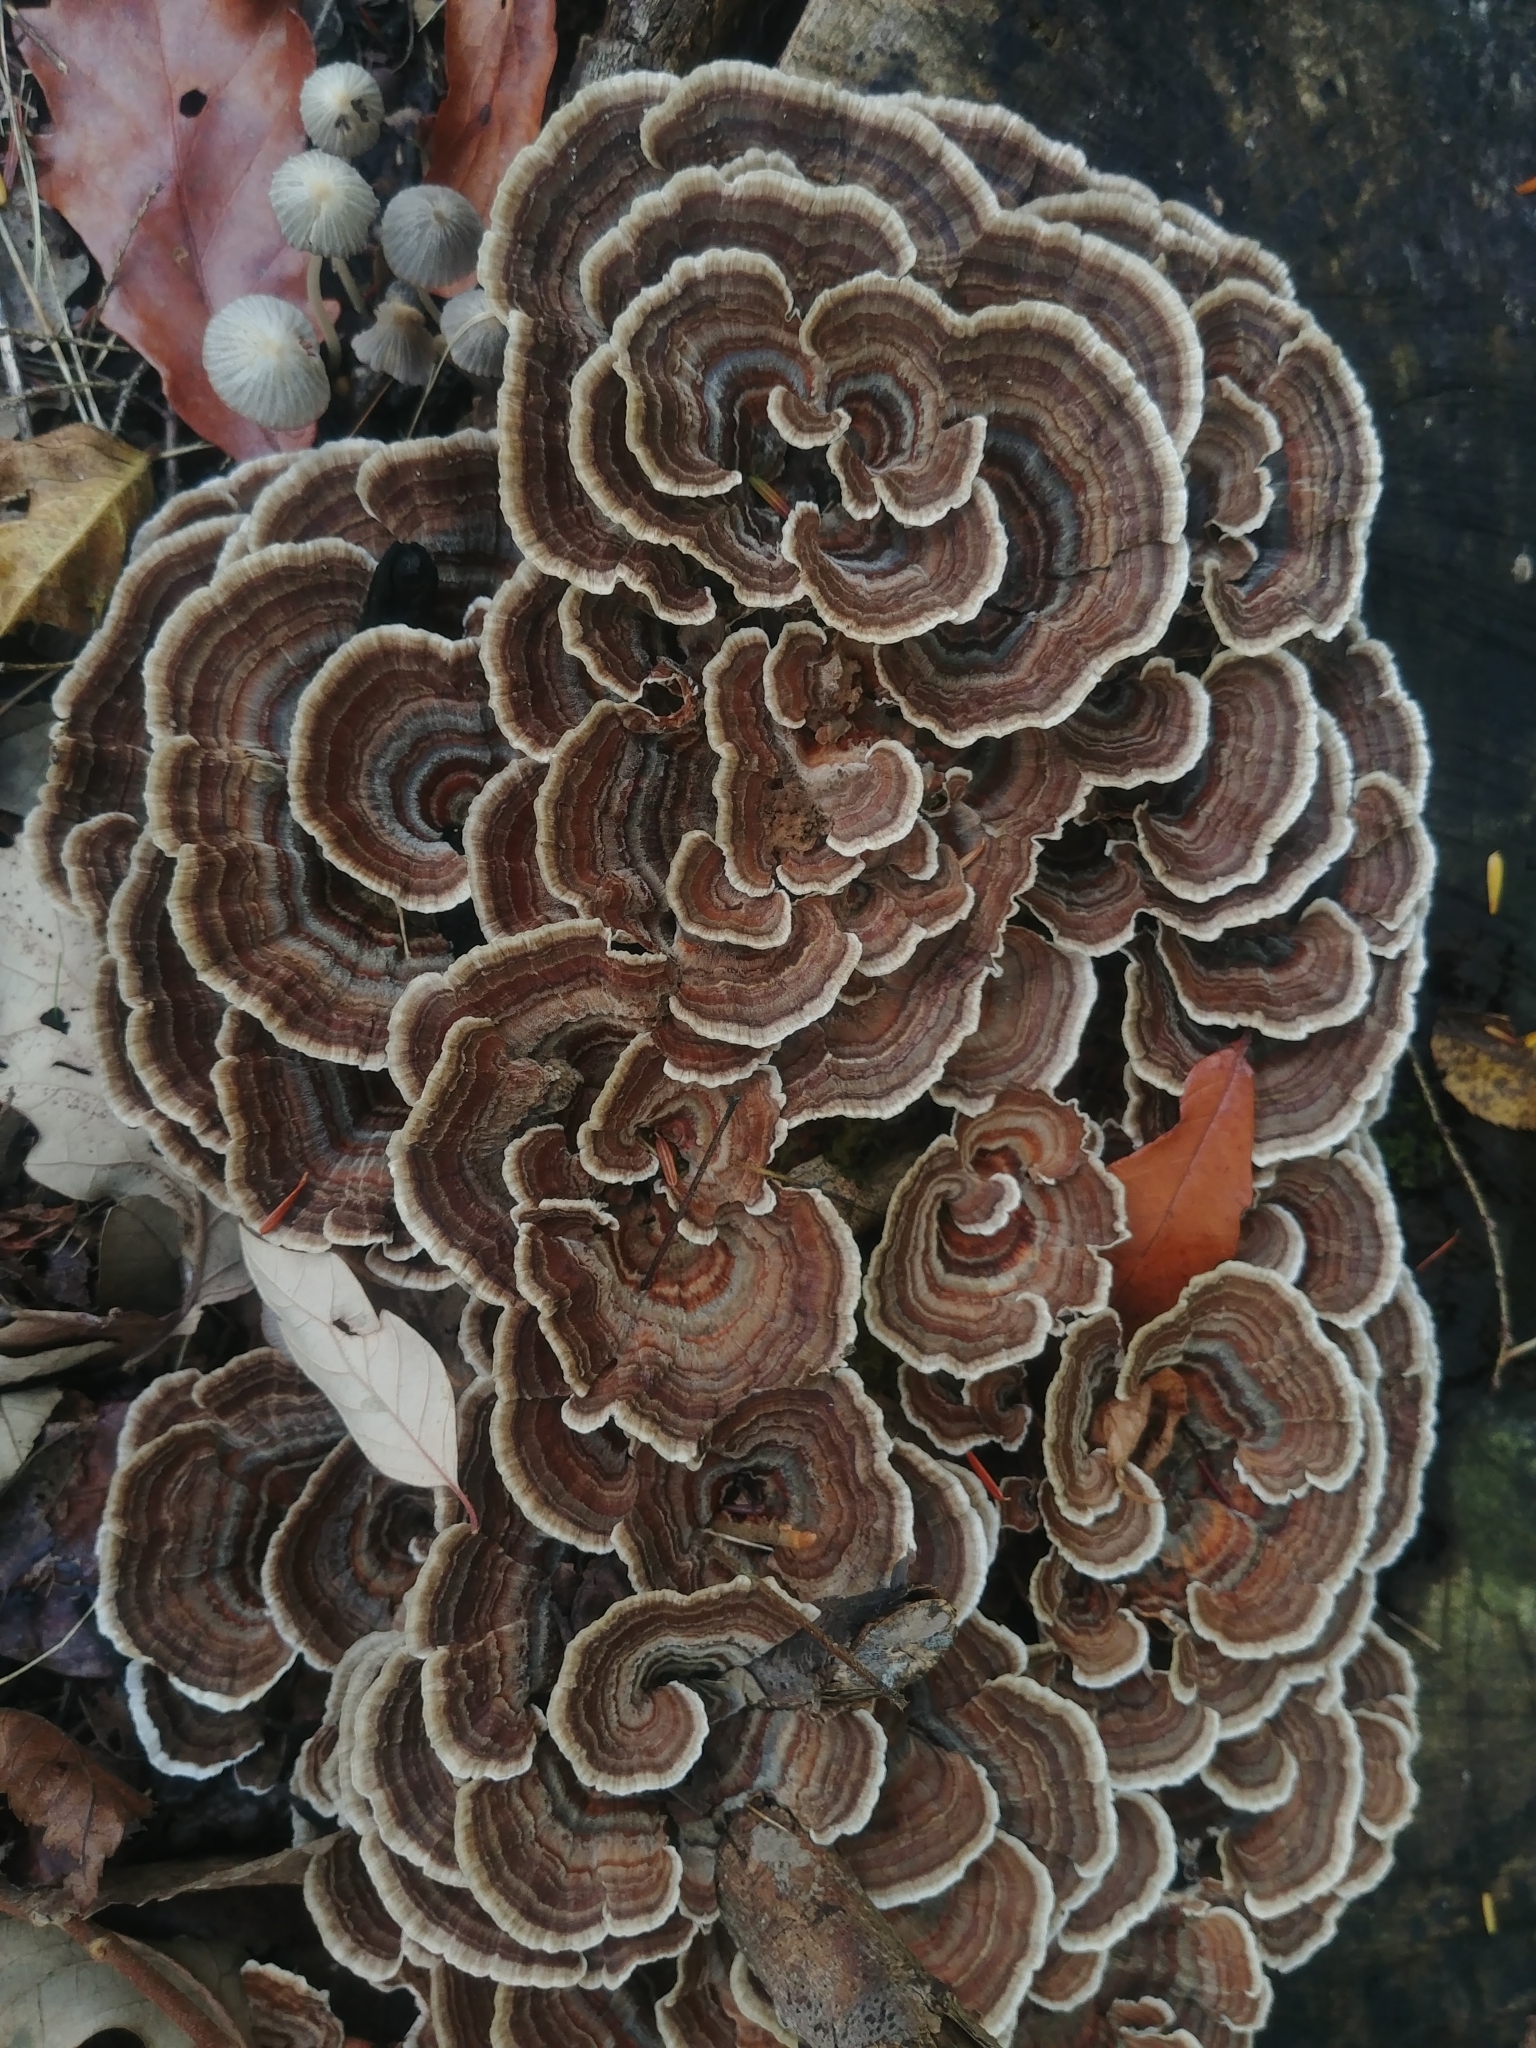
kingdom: Fungi
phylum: Basidiomycota
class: Agaricomycetes
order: Polyporales
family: Polyporaceae
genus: Trametes
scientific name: Trametes versicolor
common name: Turkeytail
